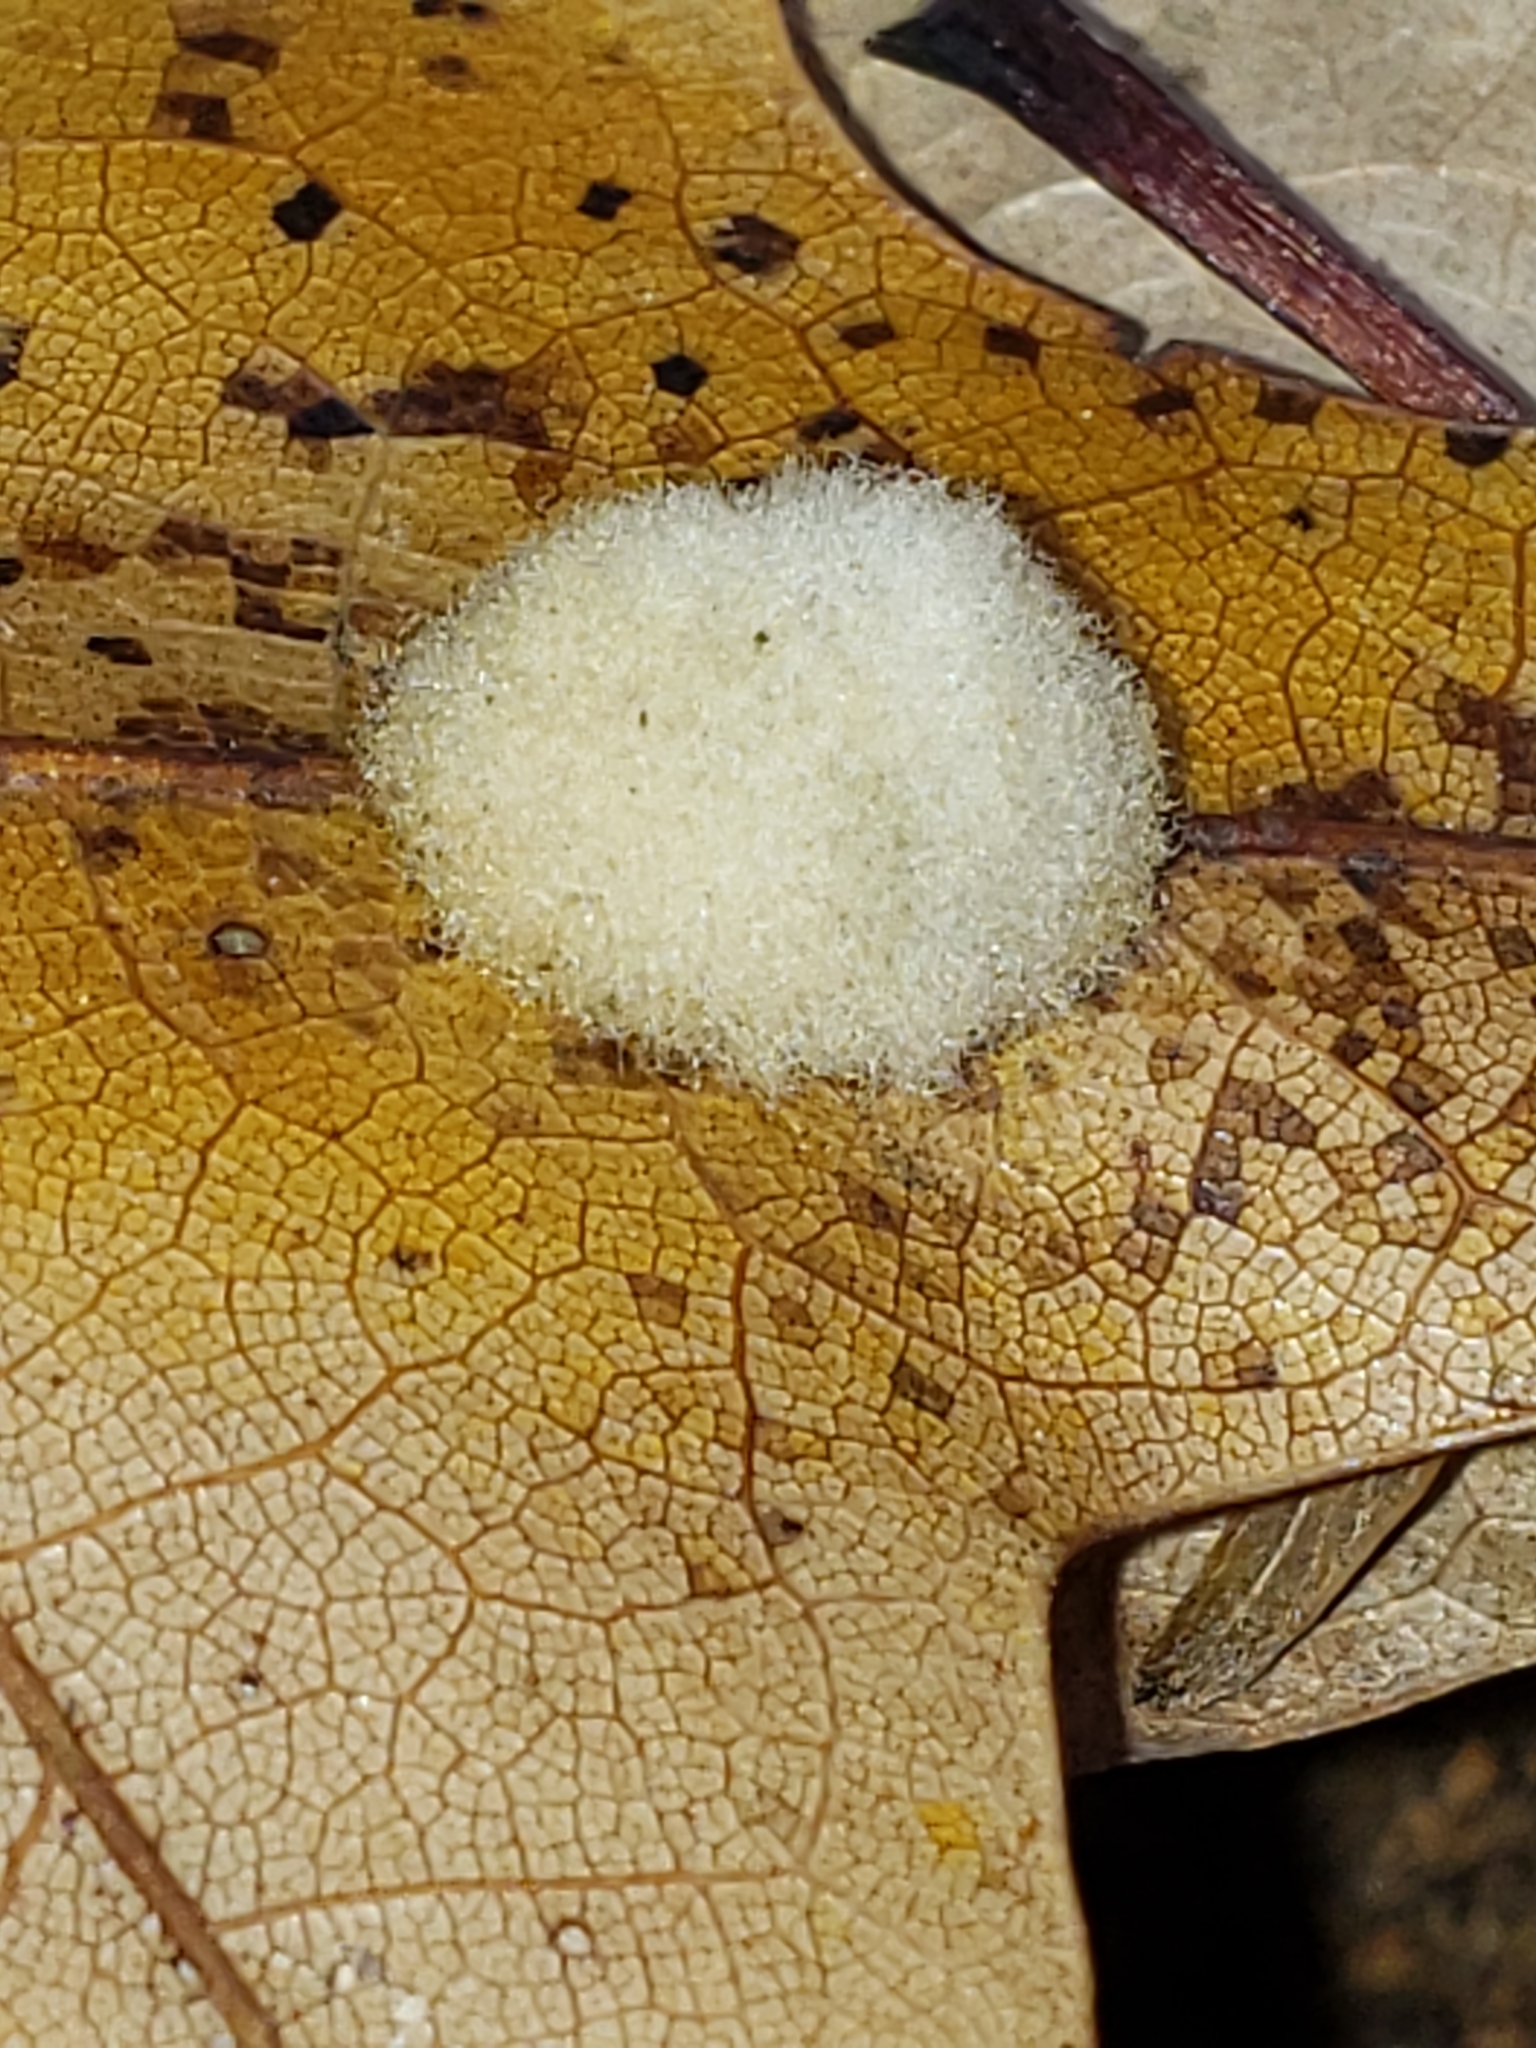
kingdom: Animalia
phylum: Arthropoda
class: Insecta
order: Hymenoptera
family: Cynipidae
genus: Callirhytis
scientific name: Callirhytis
